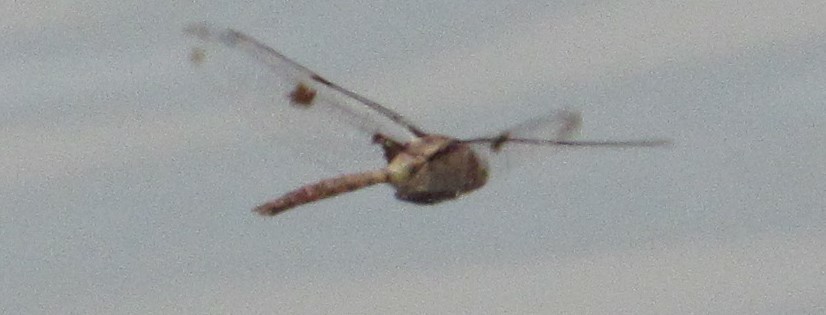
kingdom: Animalia
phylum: Arthropoda
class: Insecta
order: Odonata
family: Corduliidae
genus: Epitheca
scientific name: Epitheca princeps
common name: Prince baskettail
